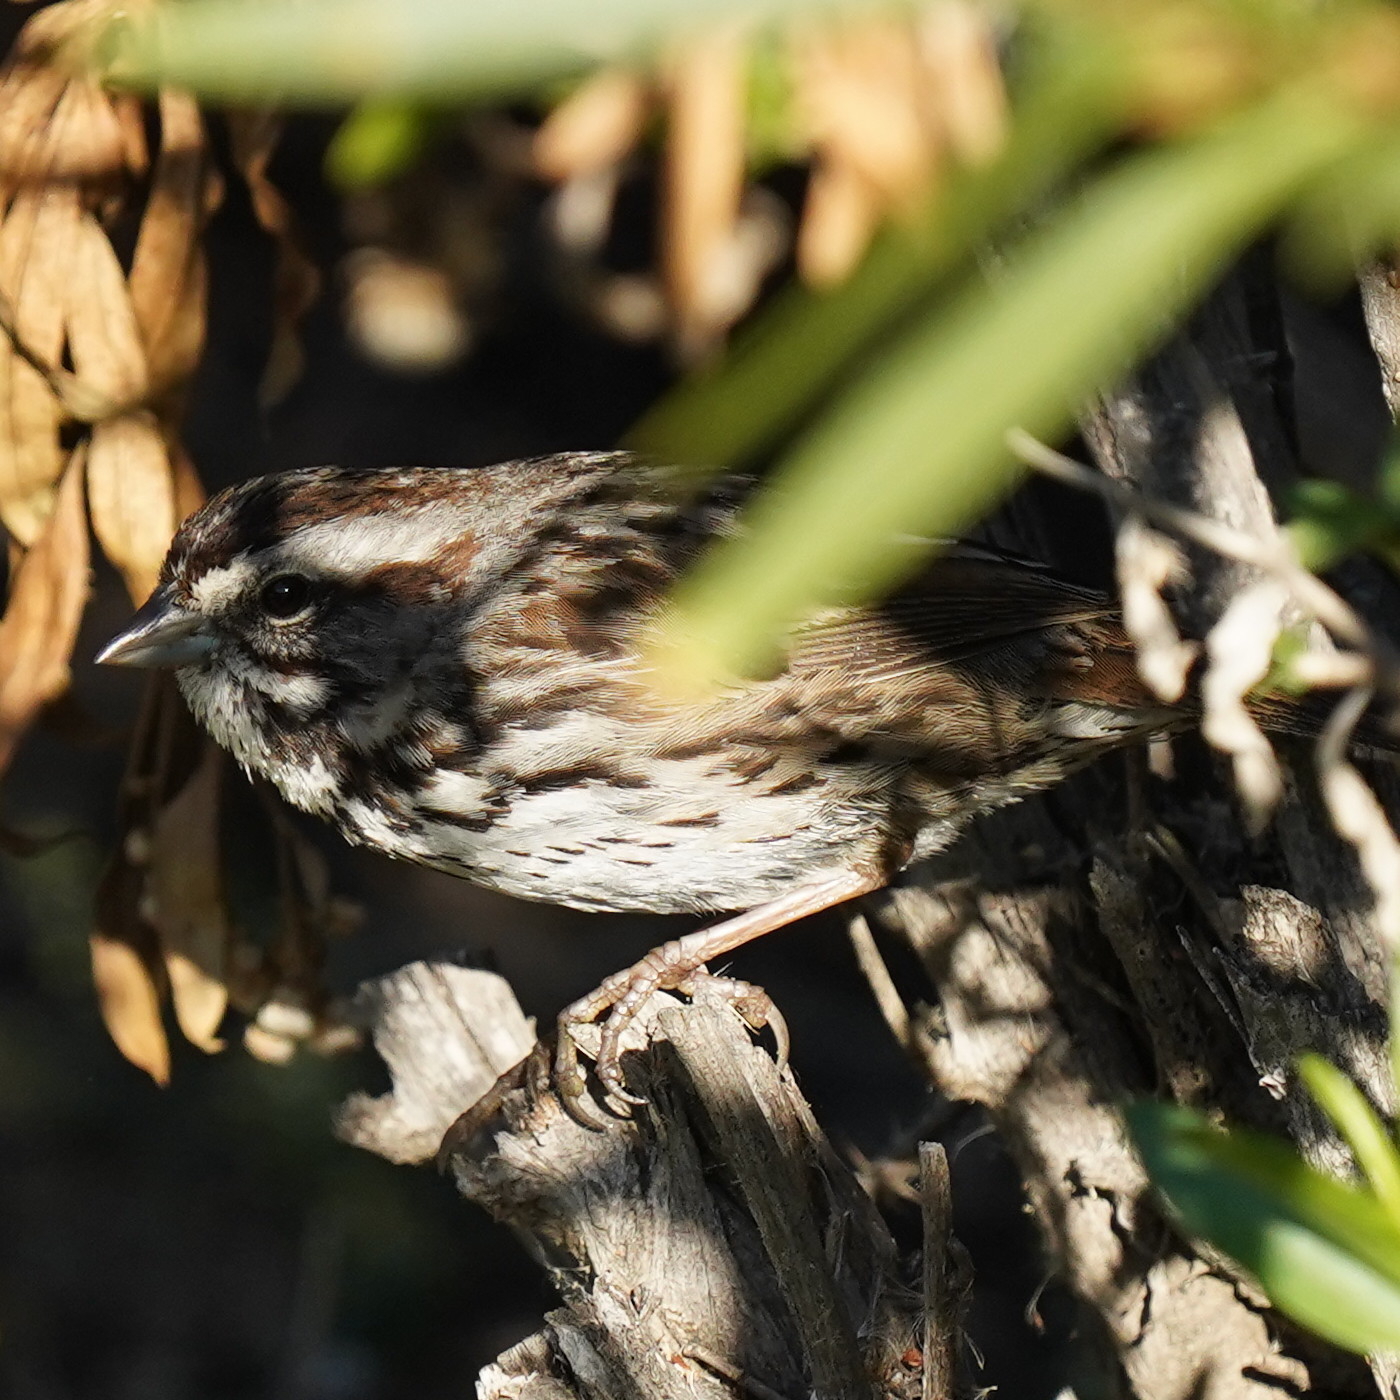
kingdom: Animalia
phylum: Chordata
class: Aves
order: Passeriformes
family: Passerellidae
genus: Melospiza
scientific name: Melospiza melodia
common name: Song sparrow
